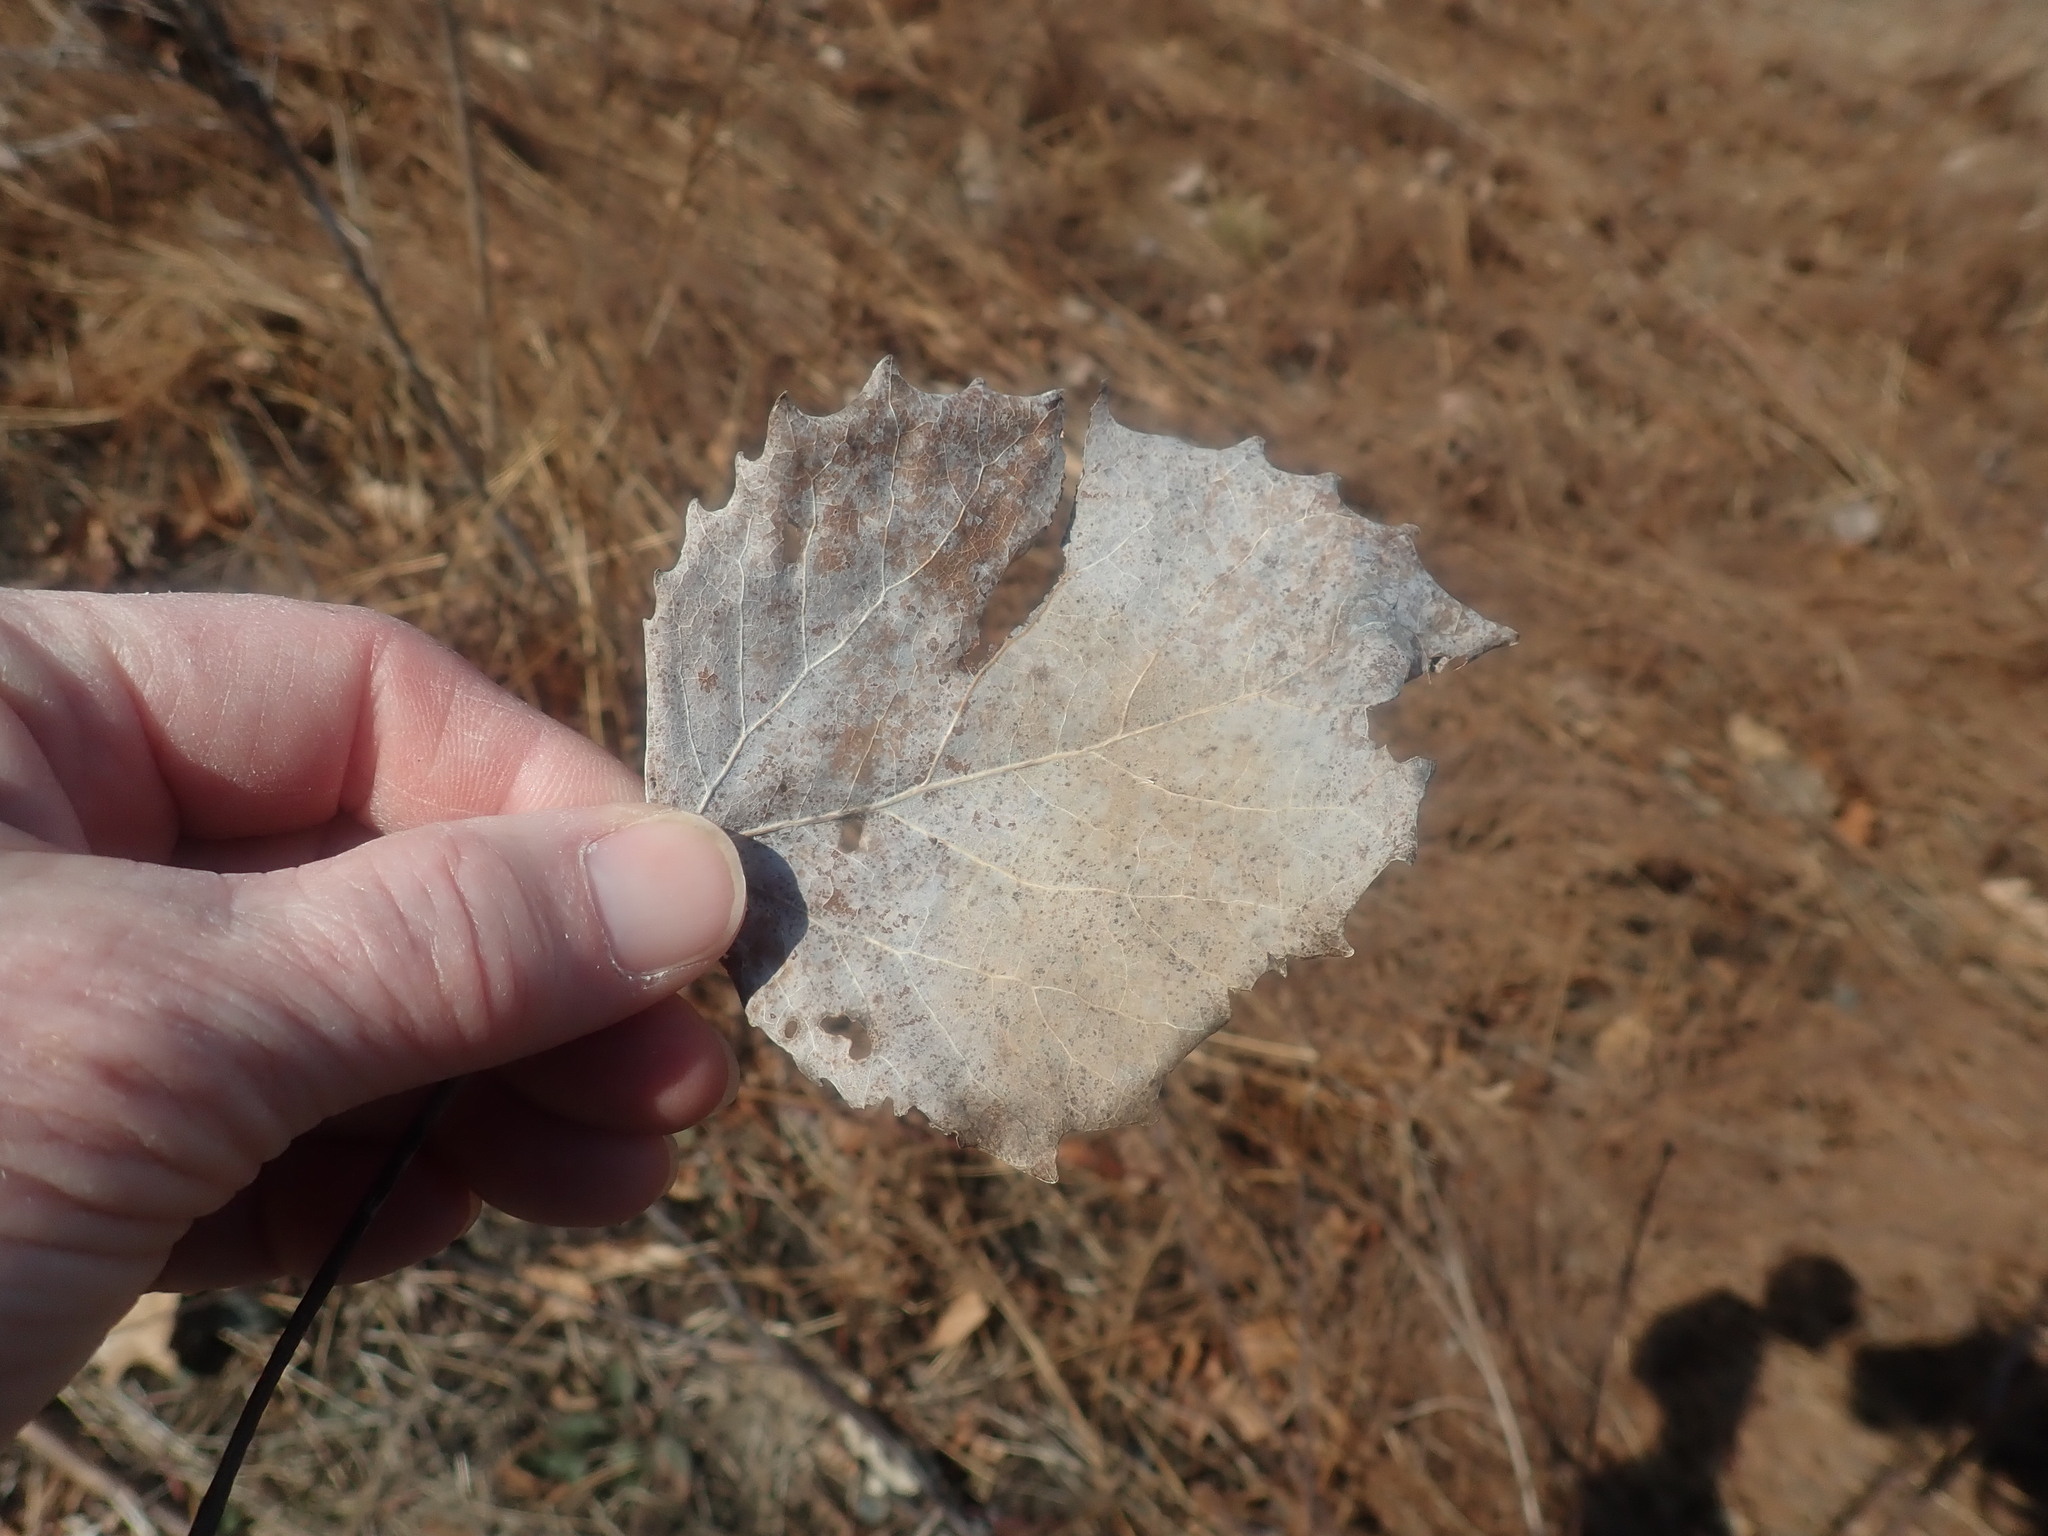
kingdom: Plantae
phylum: Tracheophyta
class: Magnoliopsida
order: Malpighiales
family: Salicaceae
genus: Populus
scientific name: Populus grandidentata
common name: Bigtooth aspen
